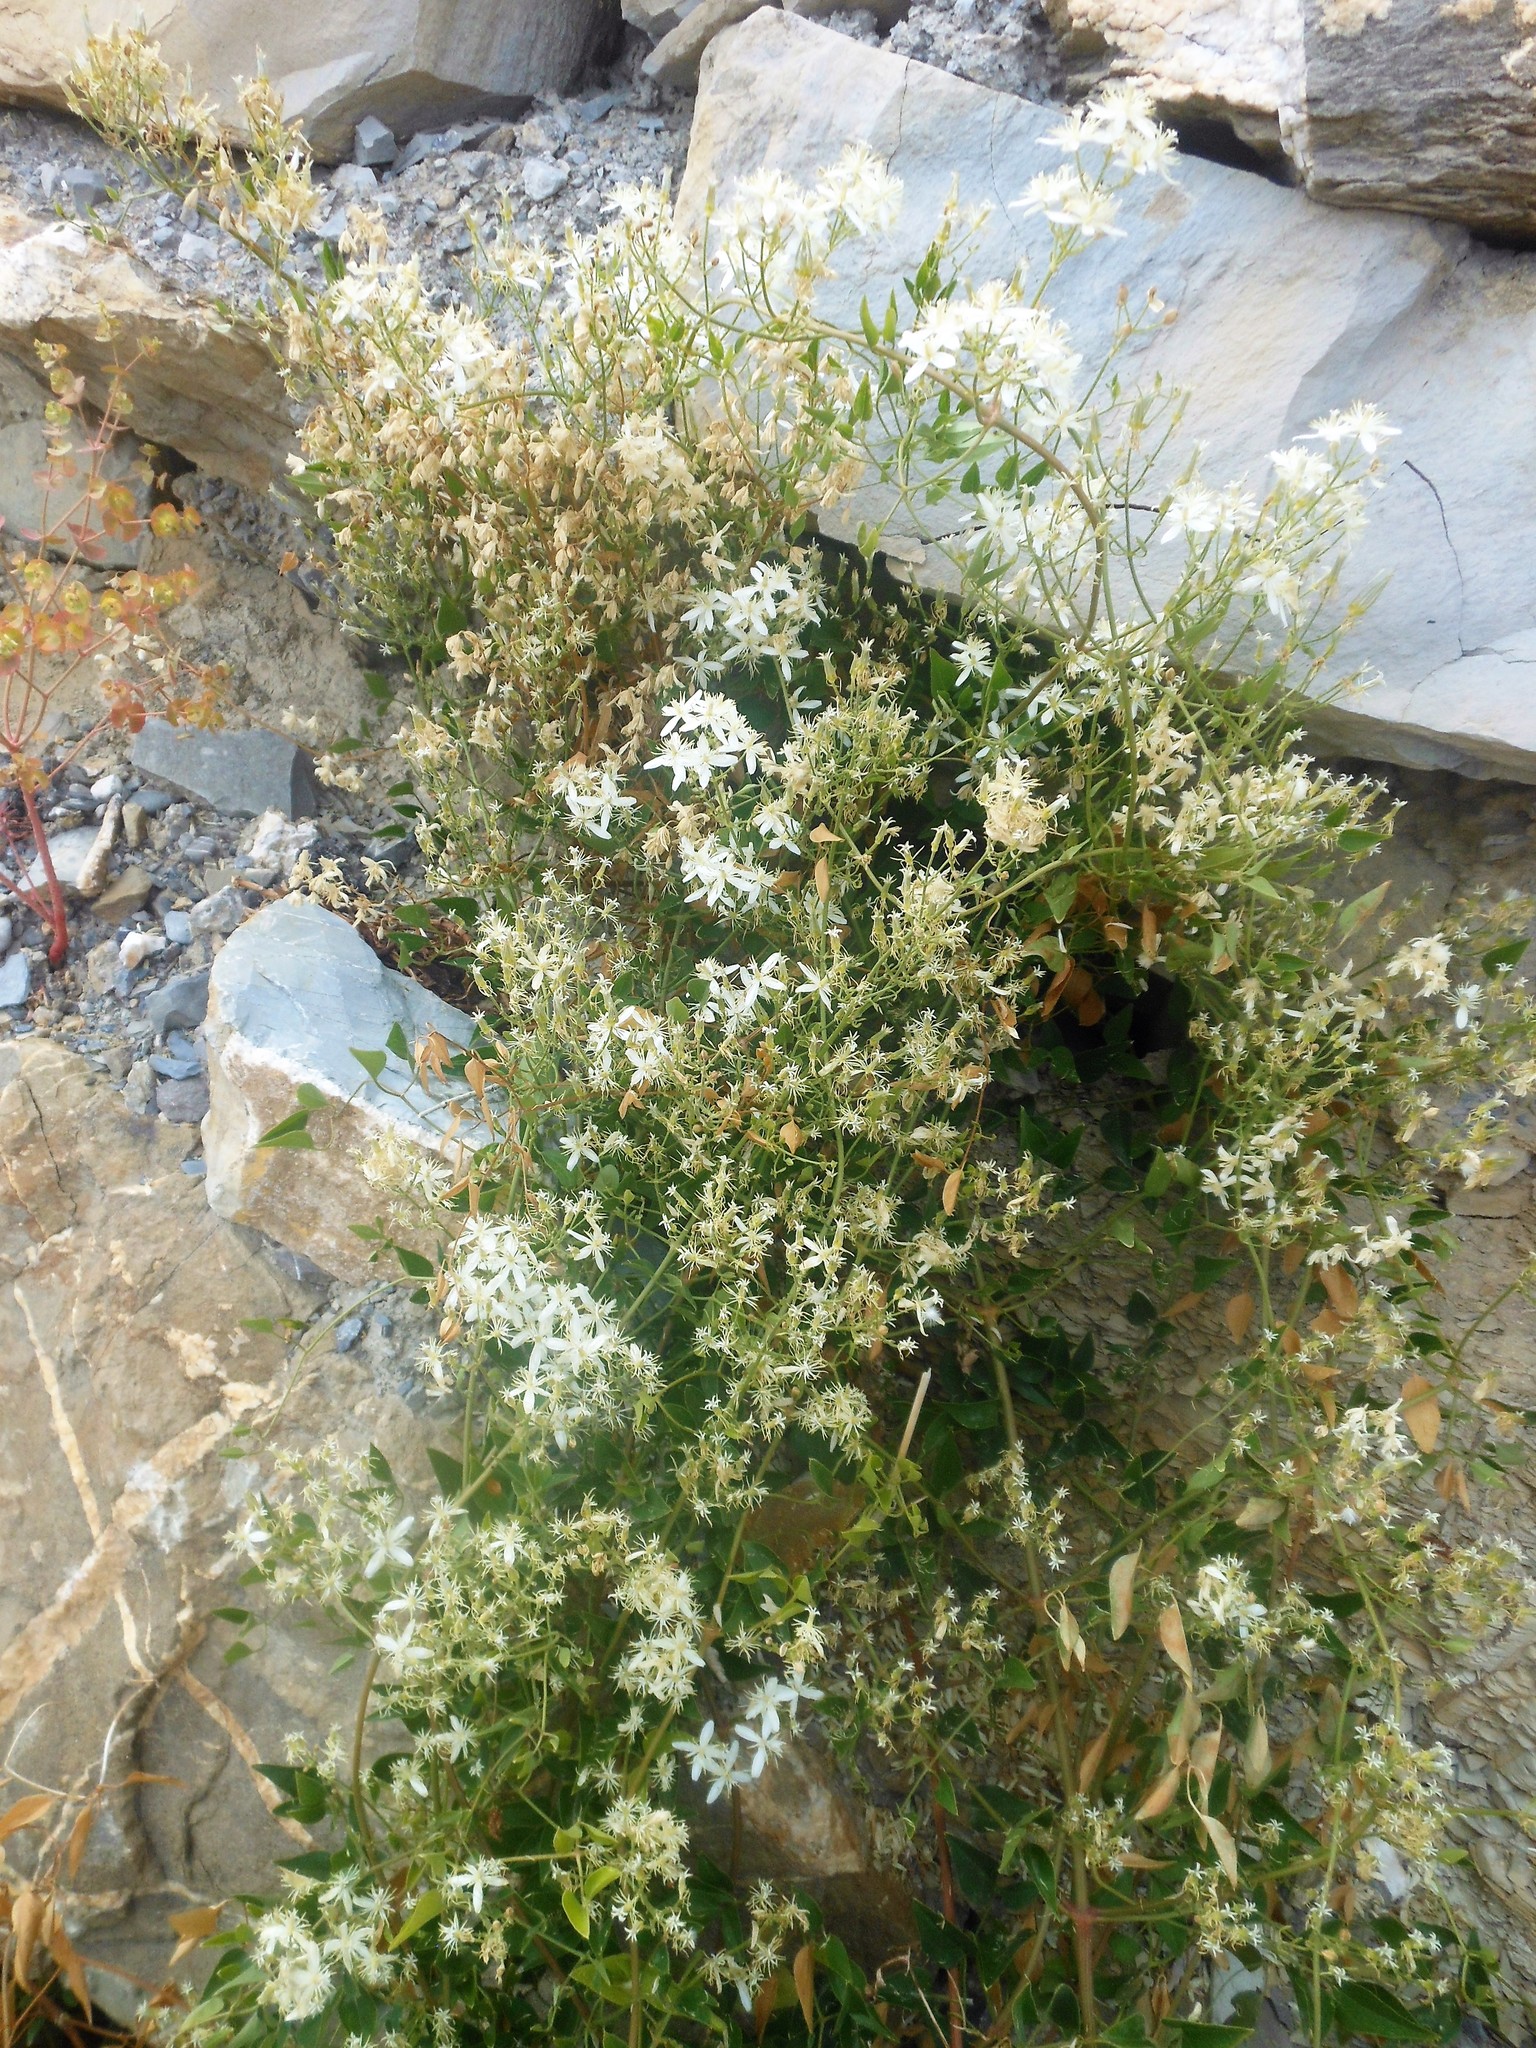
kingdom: Plantae
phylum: Tracheophyta
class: Magnoliopsida
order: Ranunculales
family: Ranunculaceae
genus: Clematis
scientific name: Clematis flammula
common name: Virgin's-bower
